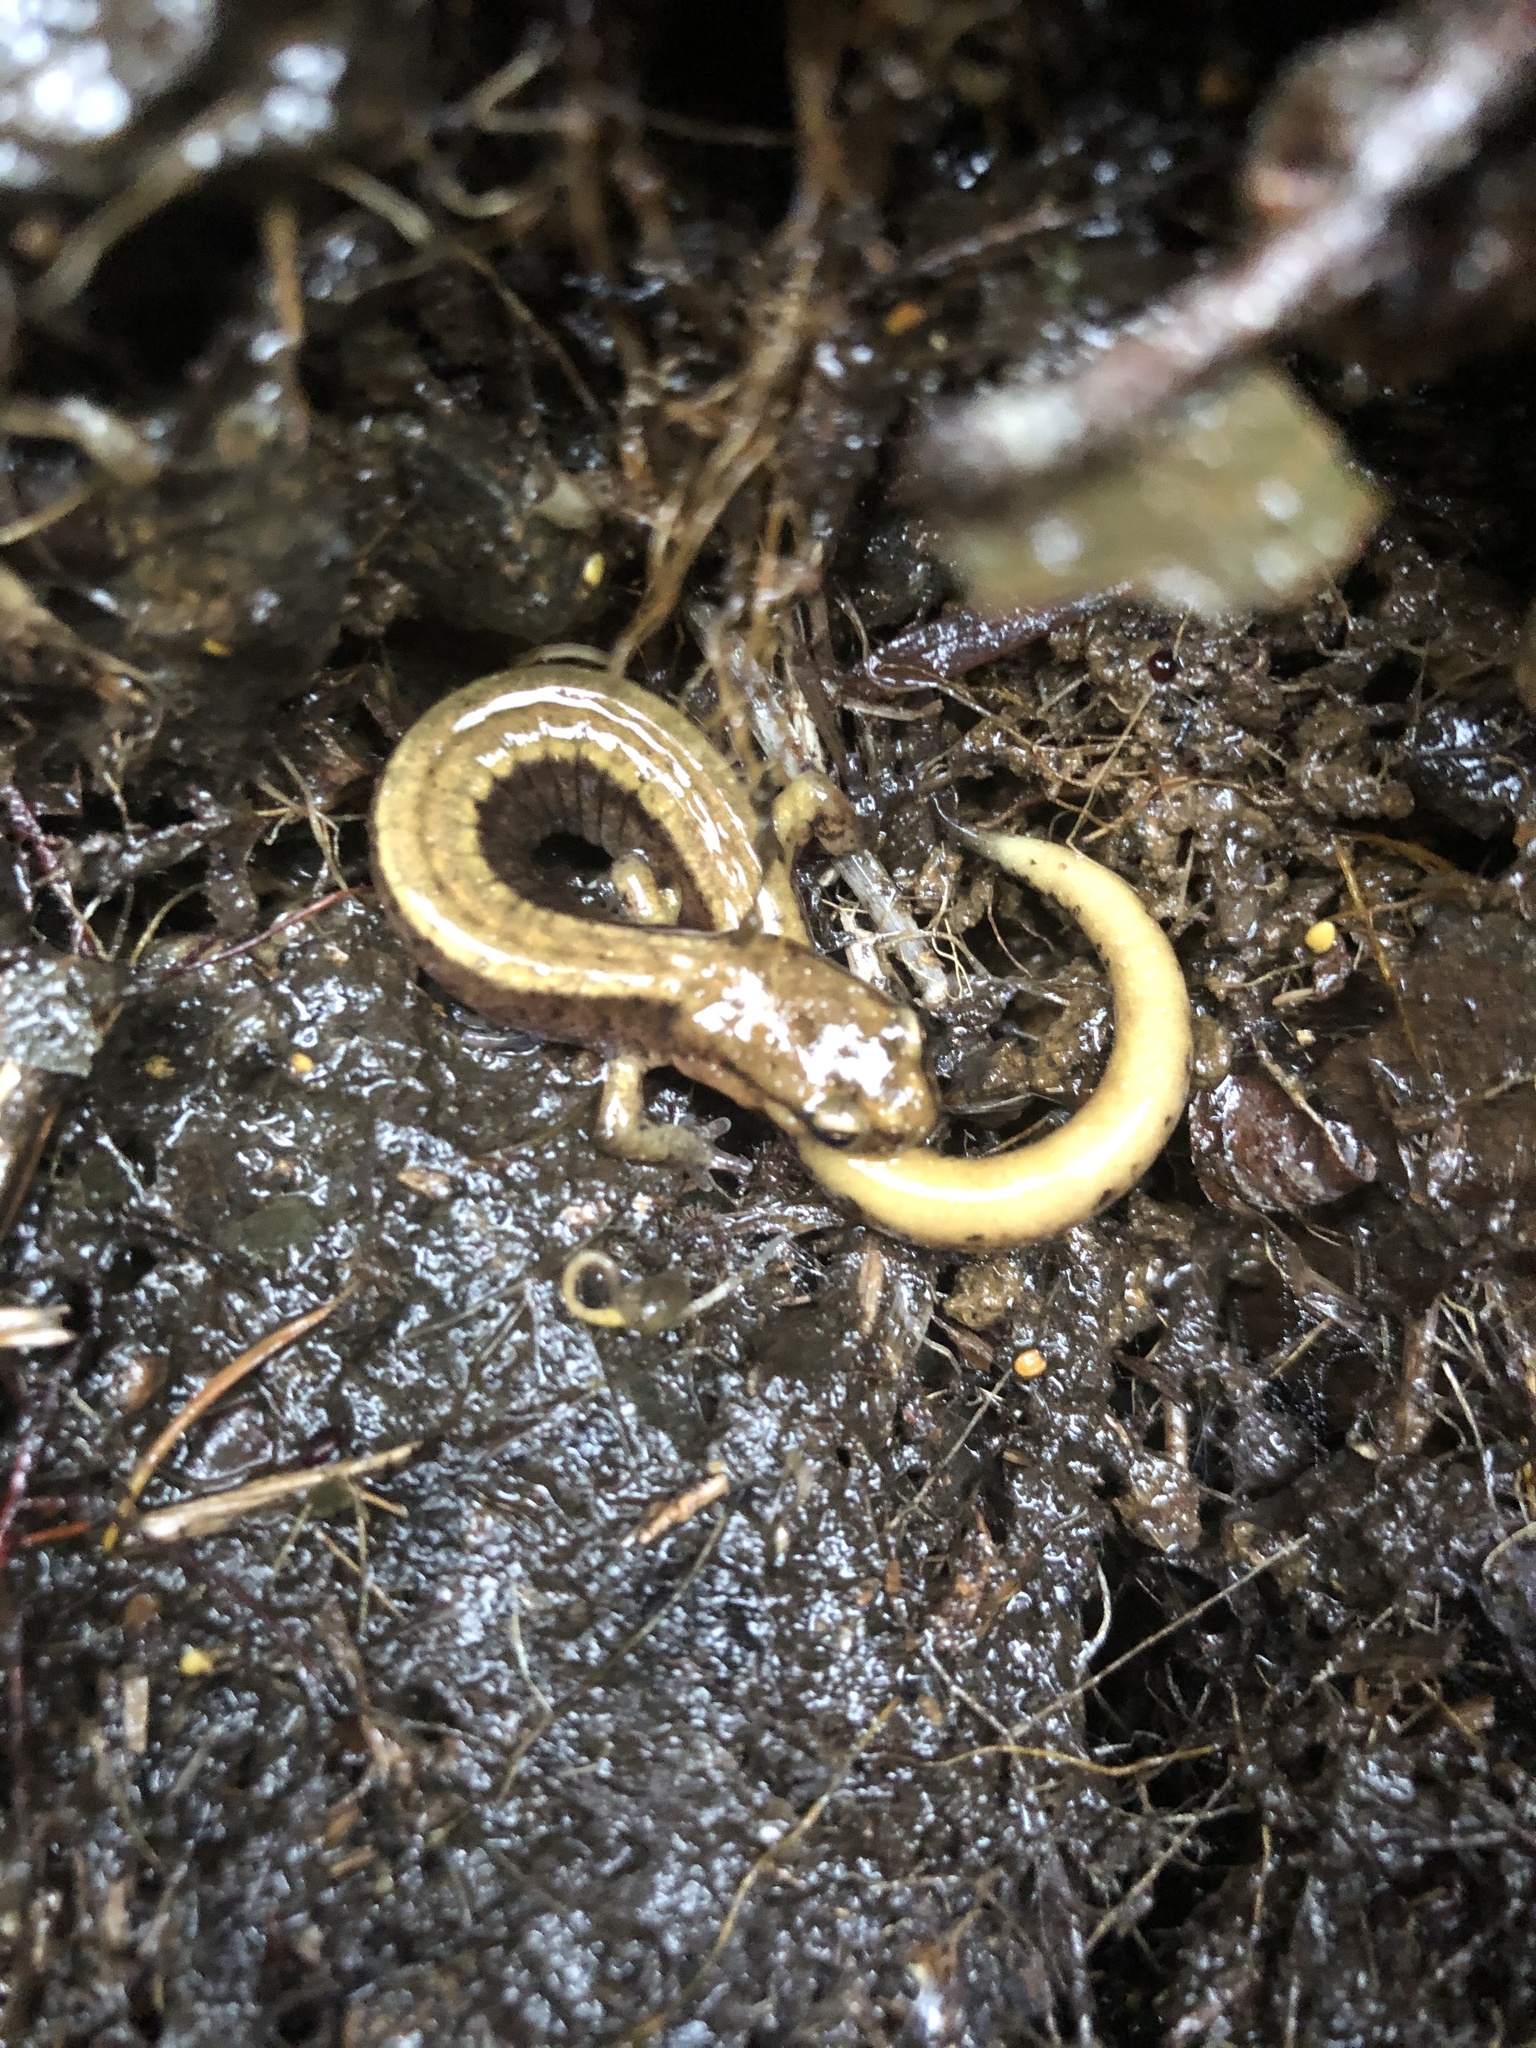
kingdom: Animalia
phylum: Chordata
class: Amphibia
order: Caudata
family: Plethodontidae
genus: Plethodon
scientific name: Plethodon vehiculum
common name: Western red-backed salamander
